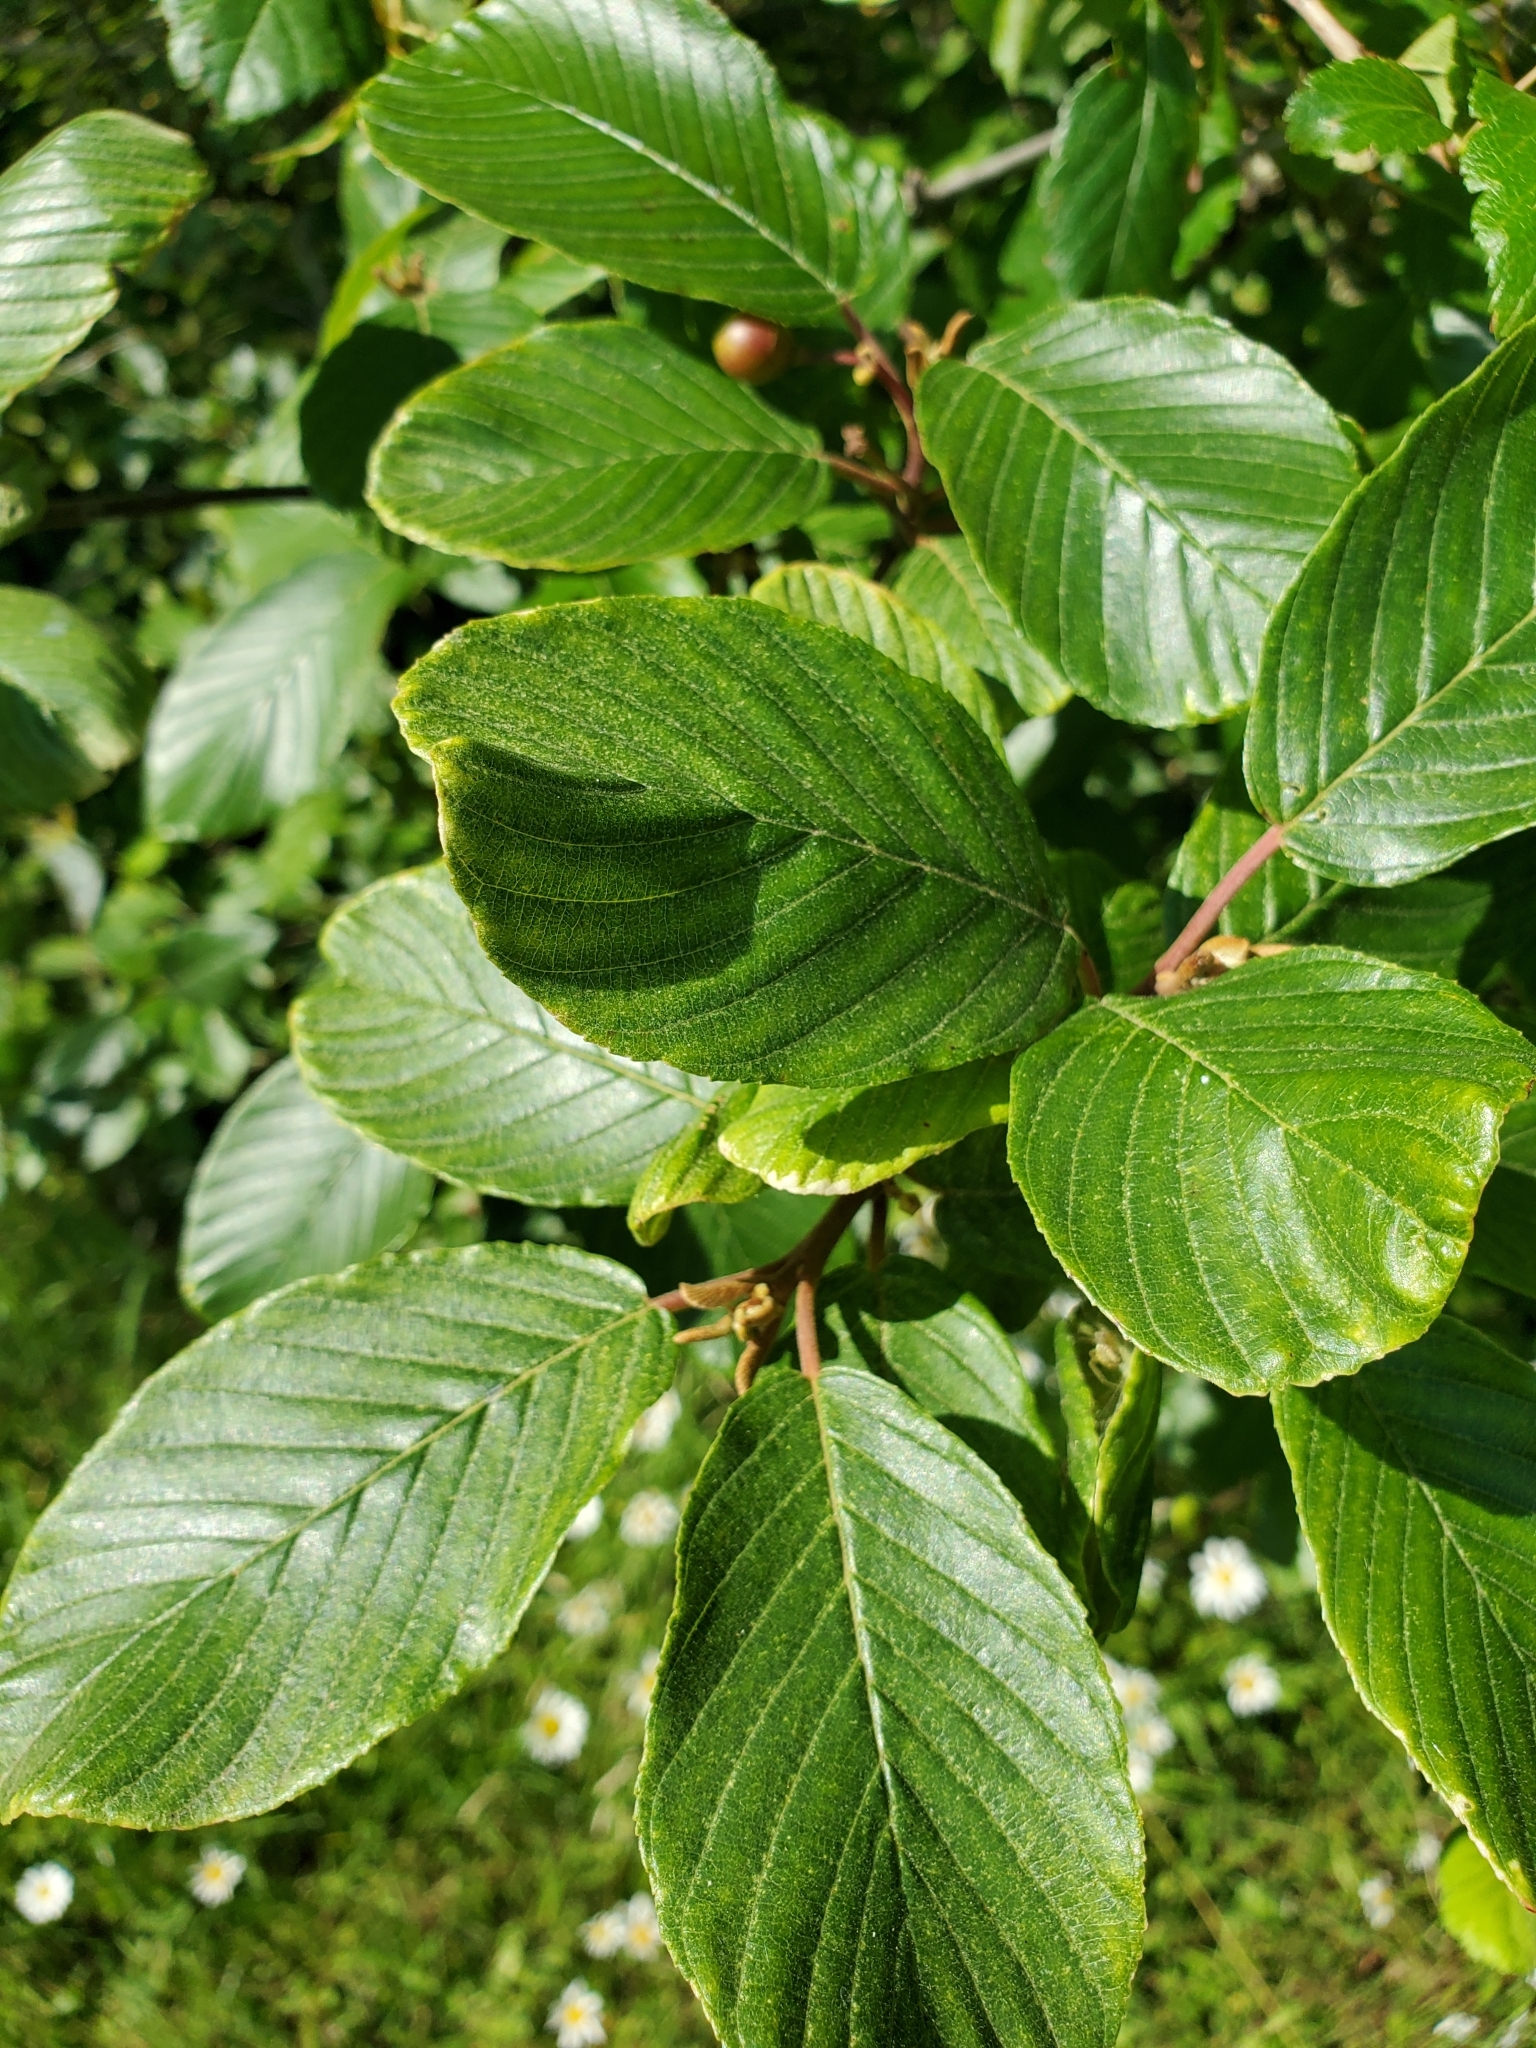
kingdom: Plantae
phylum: Tracheophyta
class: Magnoliopsida
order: Rosales
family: Rhamnaceae
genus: Frangula
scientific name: Frangula purshiana
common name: Cascara buckthorn
